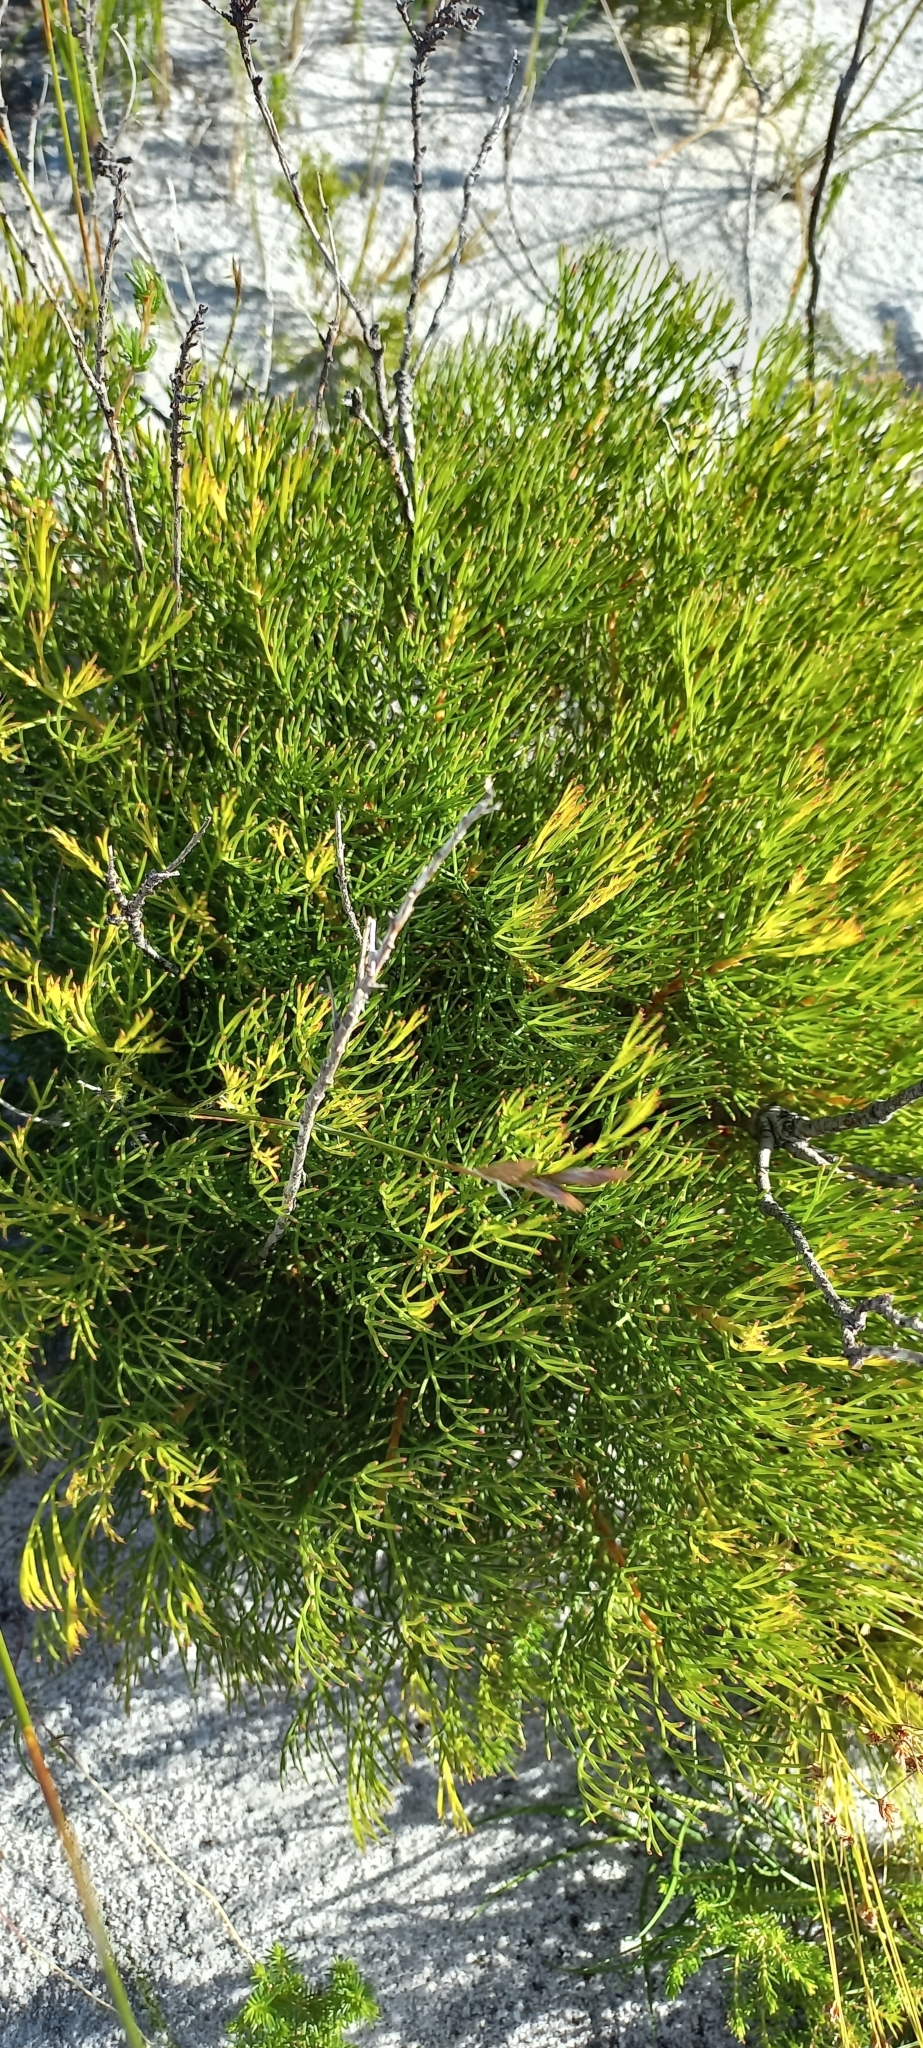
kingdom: Plantae
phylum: Tracheophyta
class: Magnoliopsida
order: Proteales
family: Proteaceae
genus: Serruria
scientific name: Serruria rubricaulis
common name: Red-stem spiderhead
